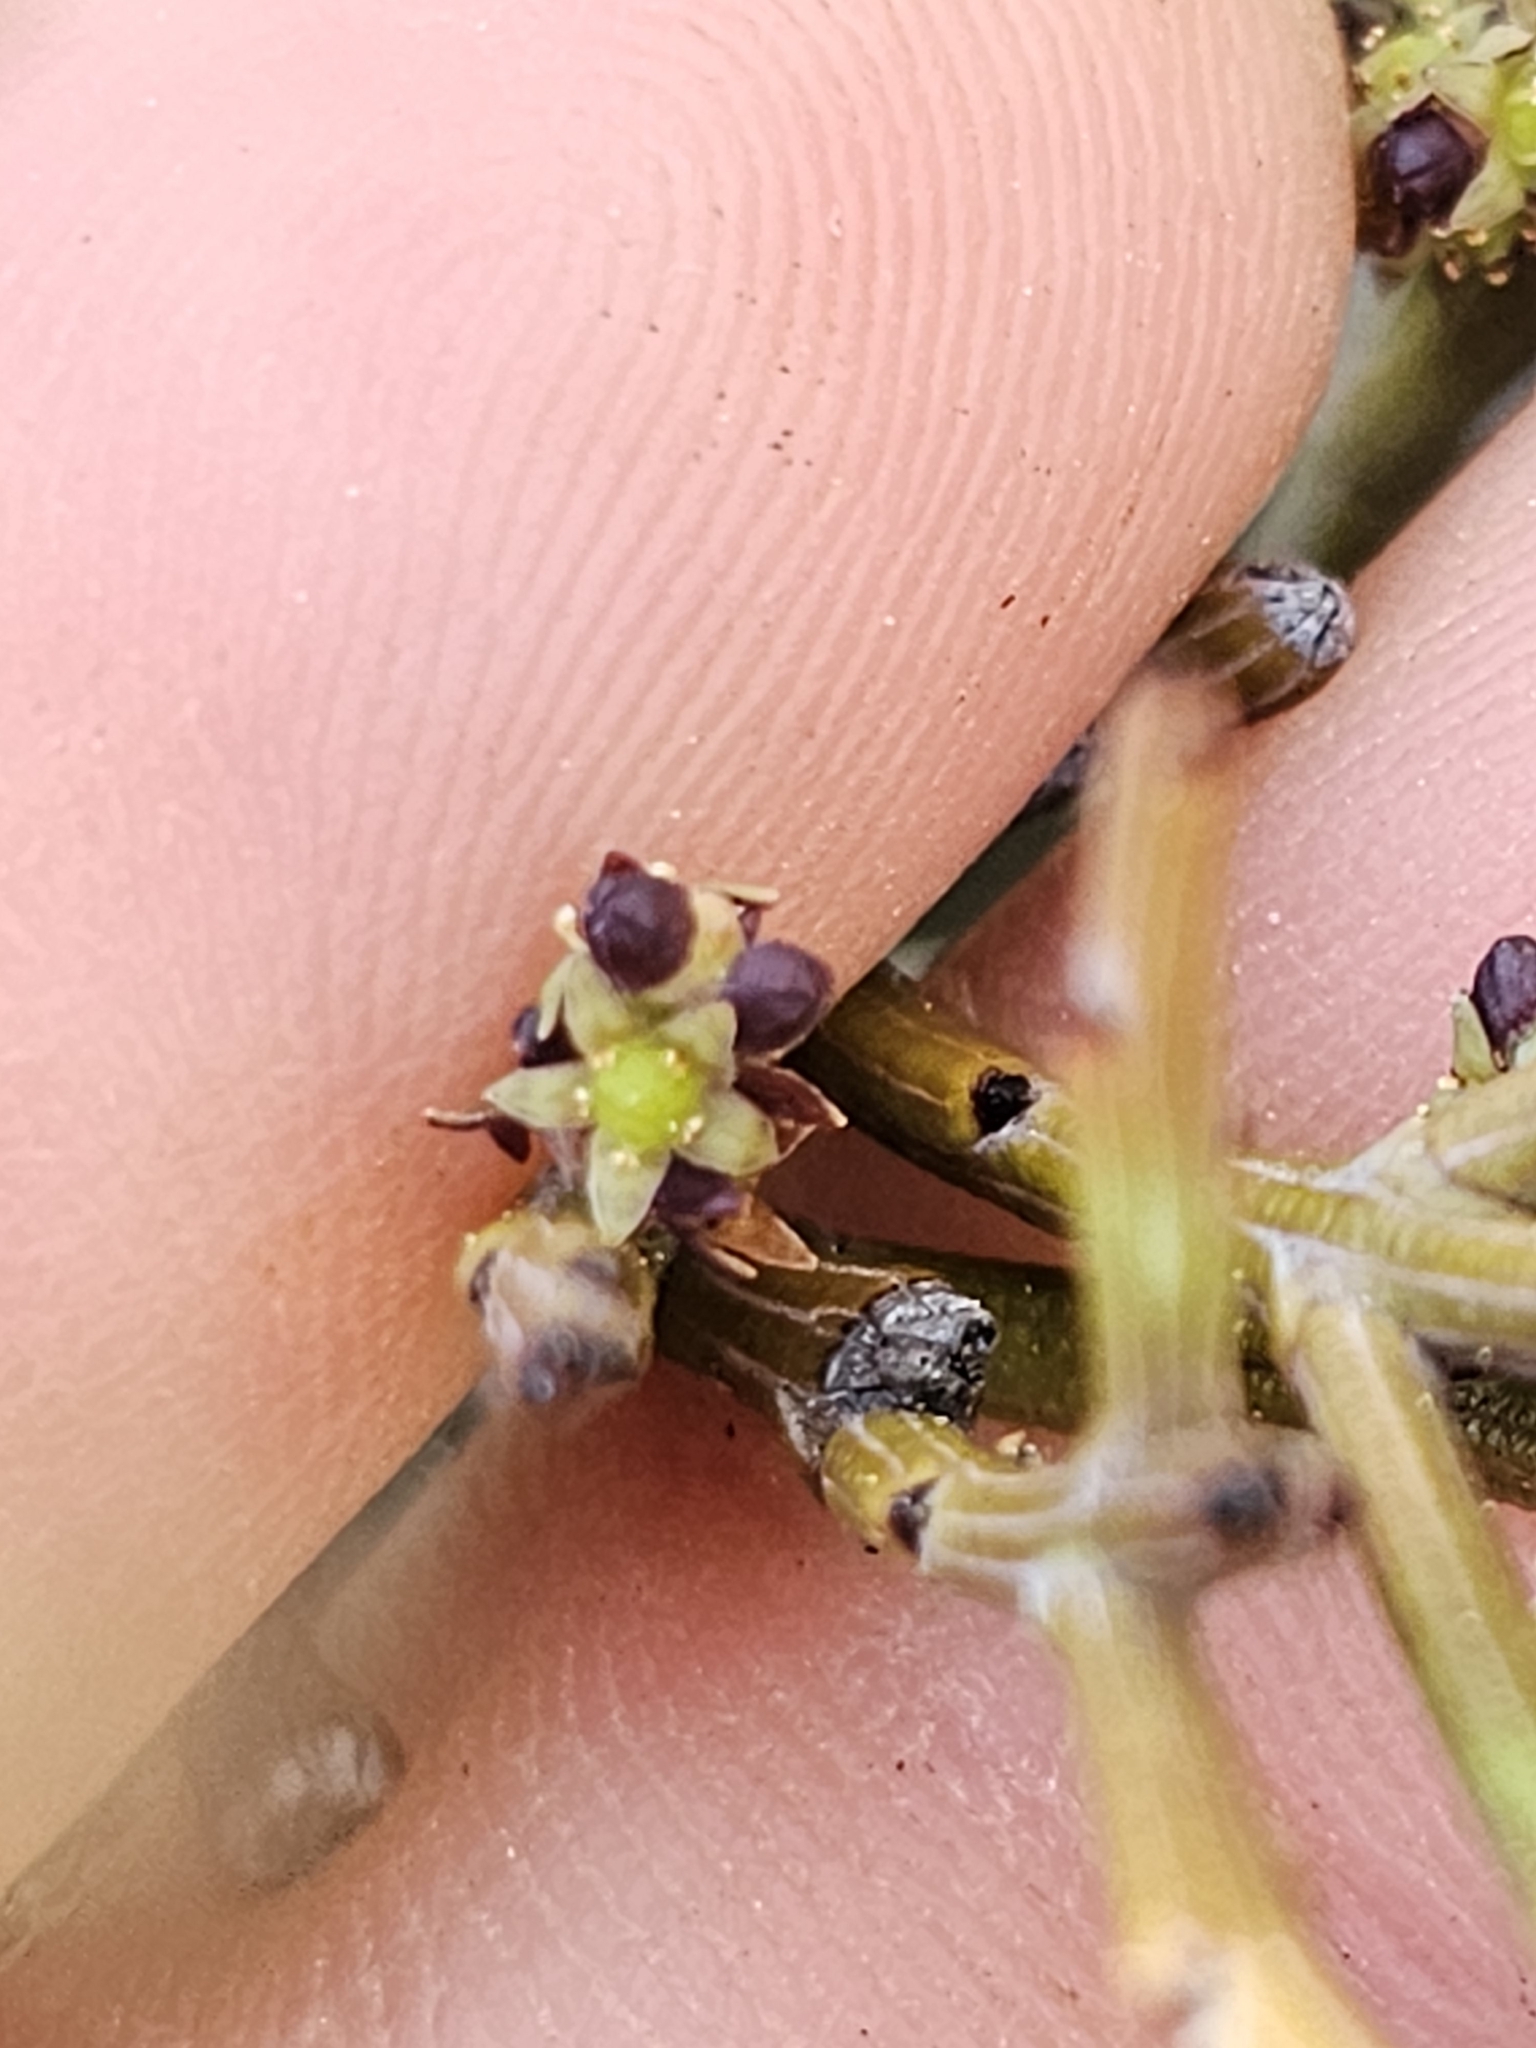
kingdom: Plantae
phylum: Tracheophyta
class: Magnoliopsida
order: Santalales
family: Santalaceae
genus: Exocarpos
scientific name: Exocarpos bidwillii
